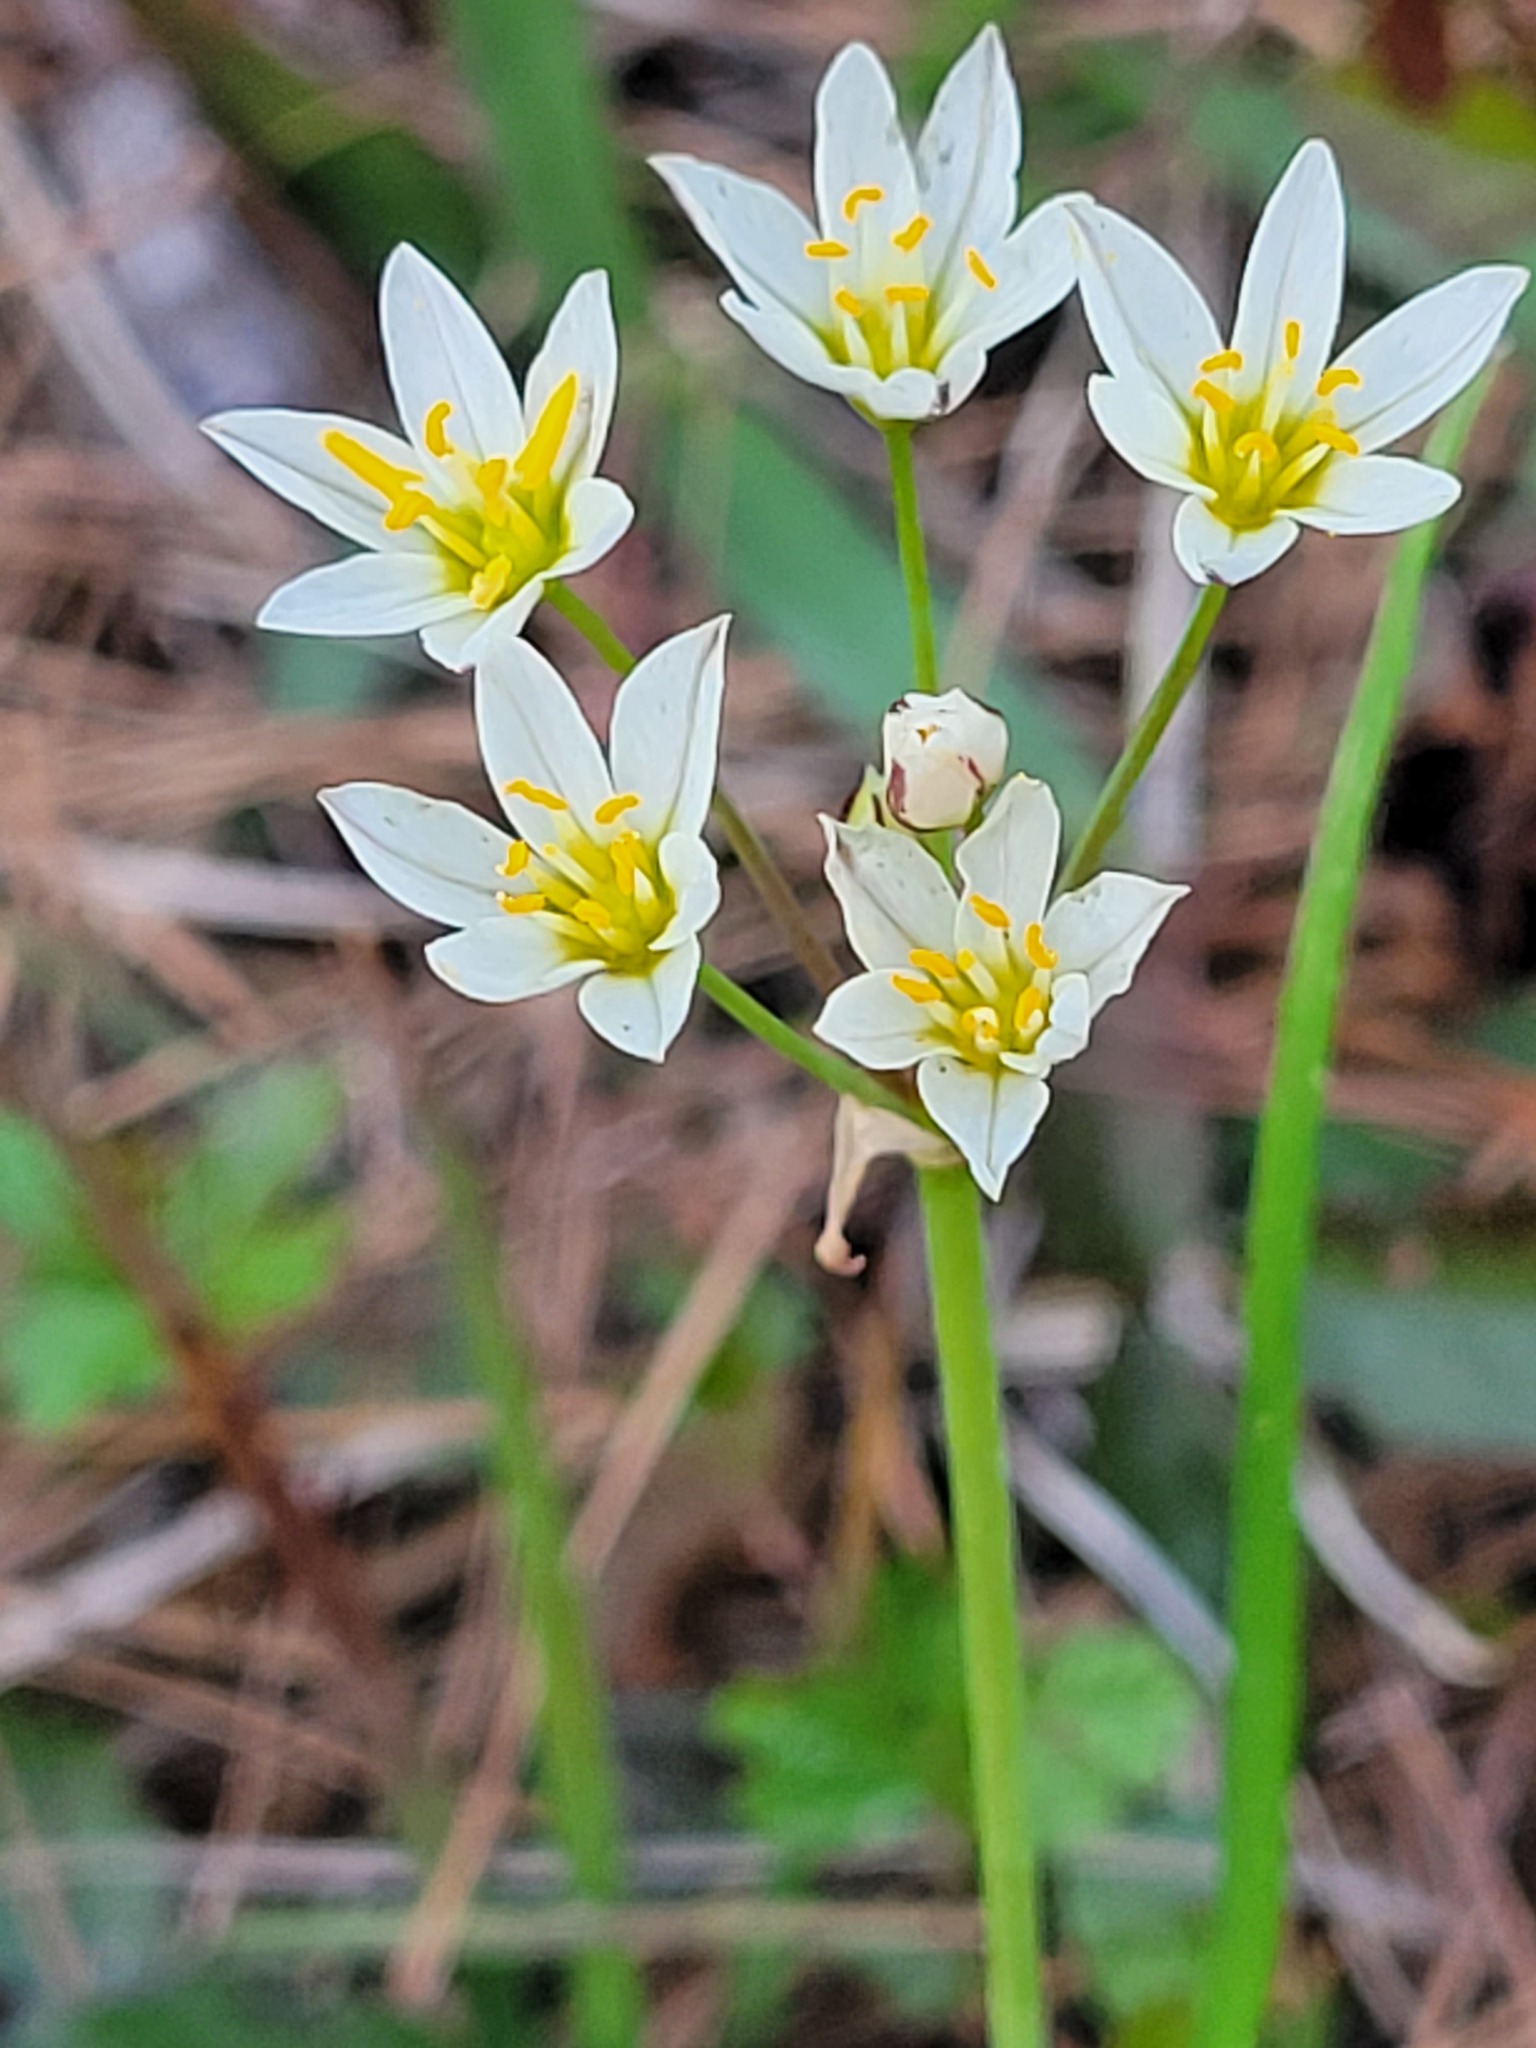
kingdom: Plantae
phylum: Tracheophyta
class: Liliopsida
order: Asparagales
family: Amaryllidaceae
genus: Nothoscordum
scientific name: Nothoscordum bivalve
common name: Crow-poison
